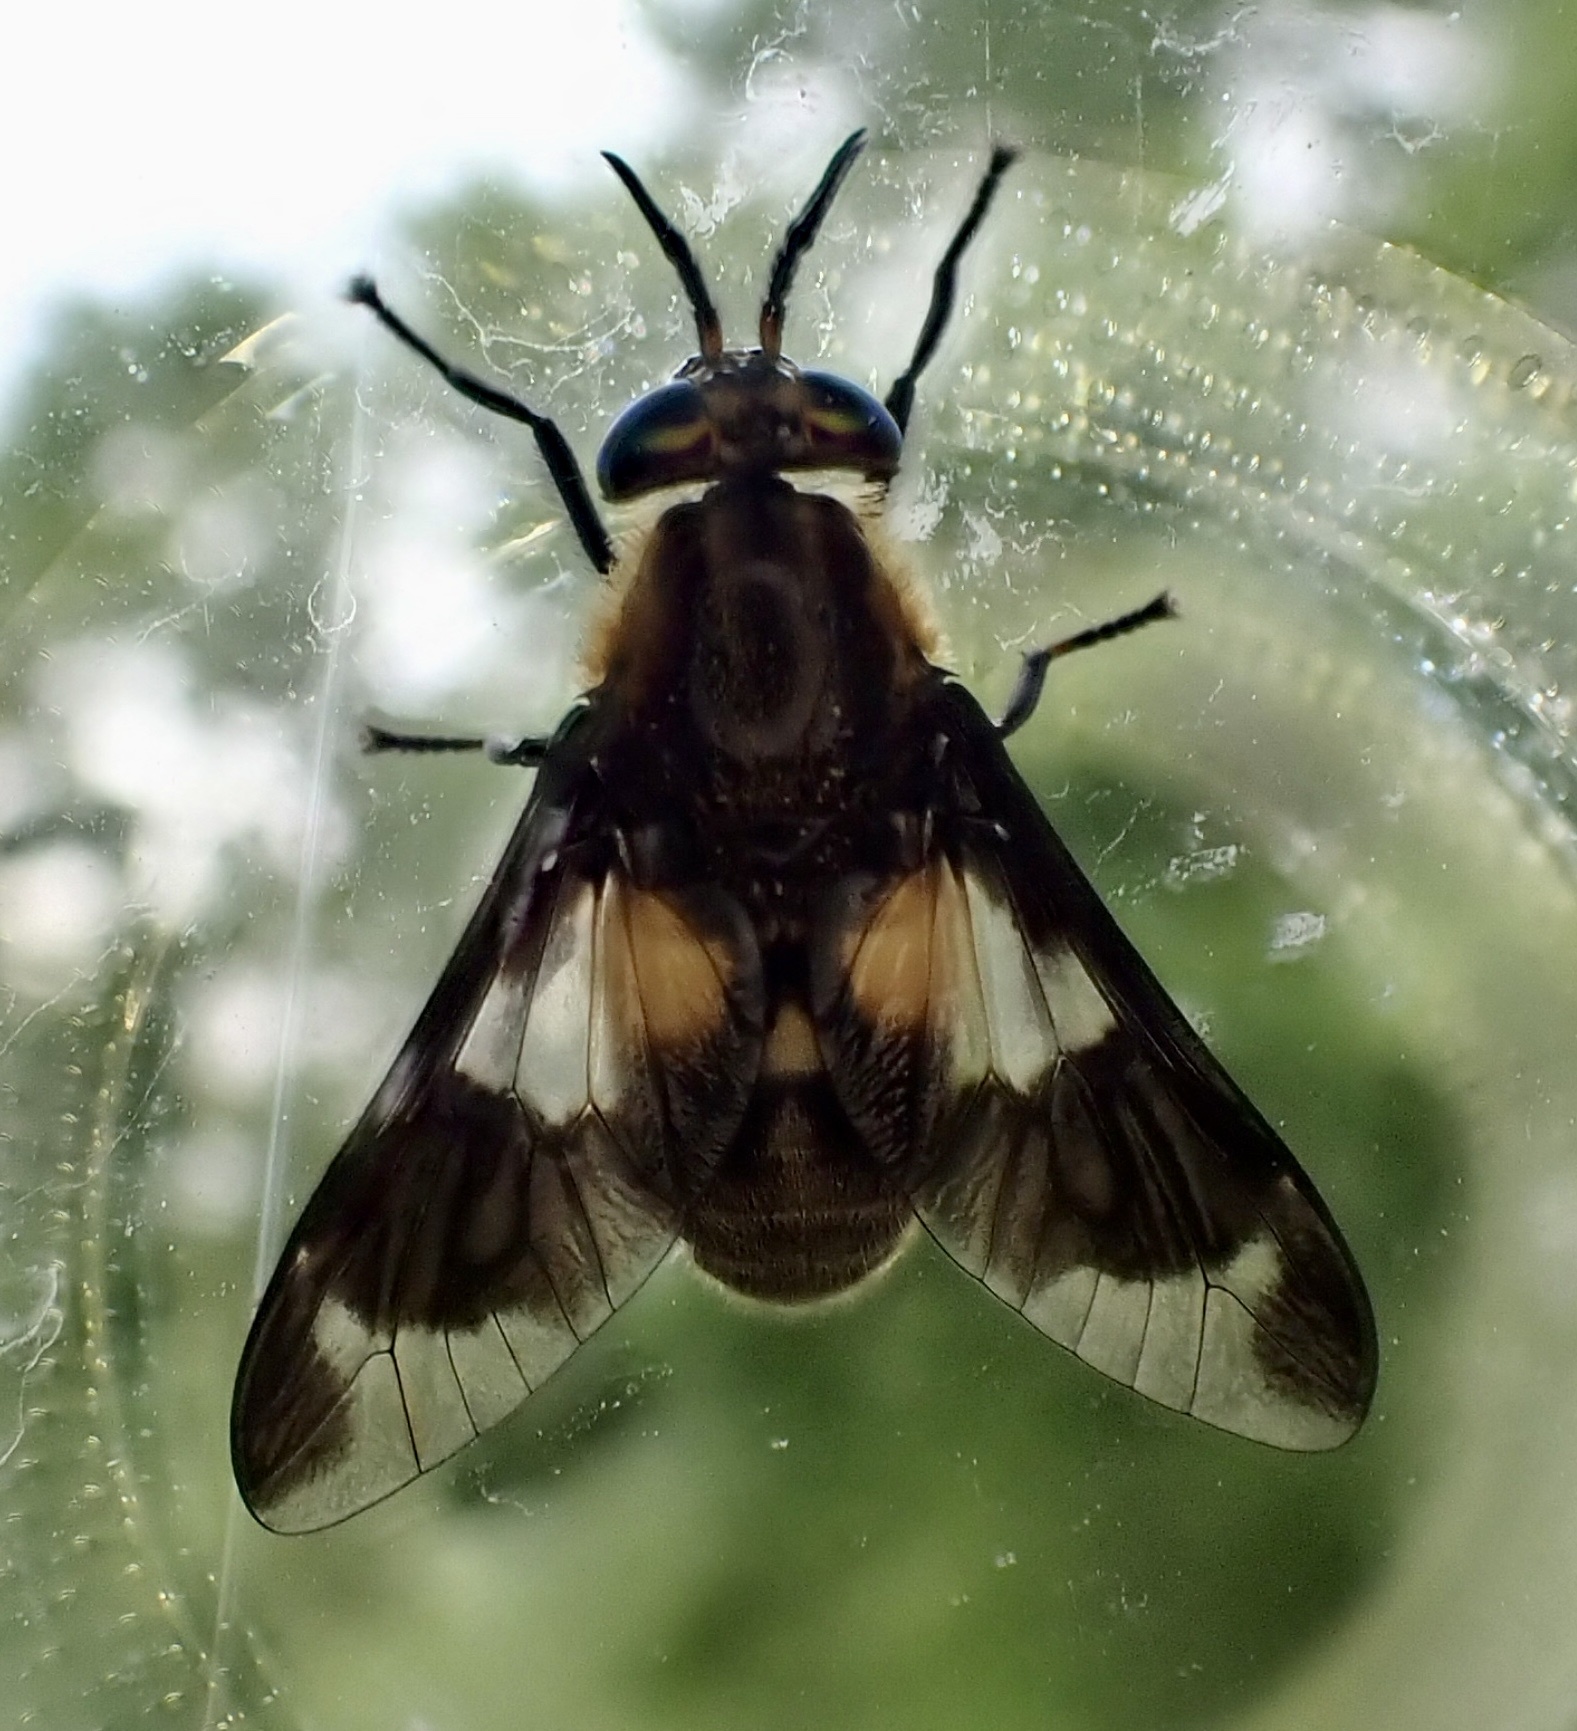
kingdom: Animalia
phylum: Arthropoda
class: Insecta
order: Diptera
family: Tabanidae
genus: Chrysops
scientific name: Chrysops caecutiens
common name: Splayed deerfly
